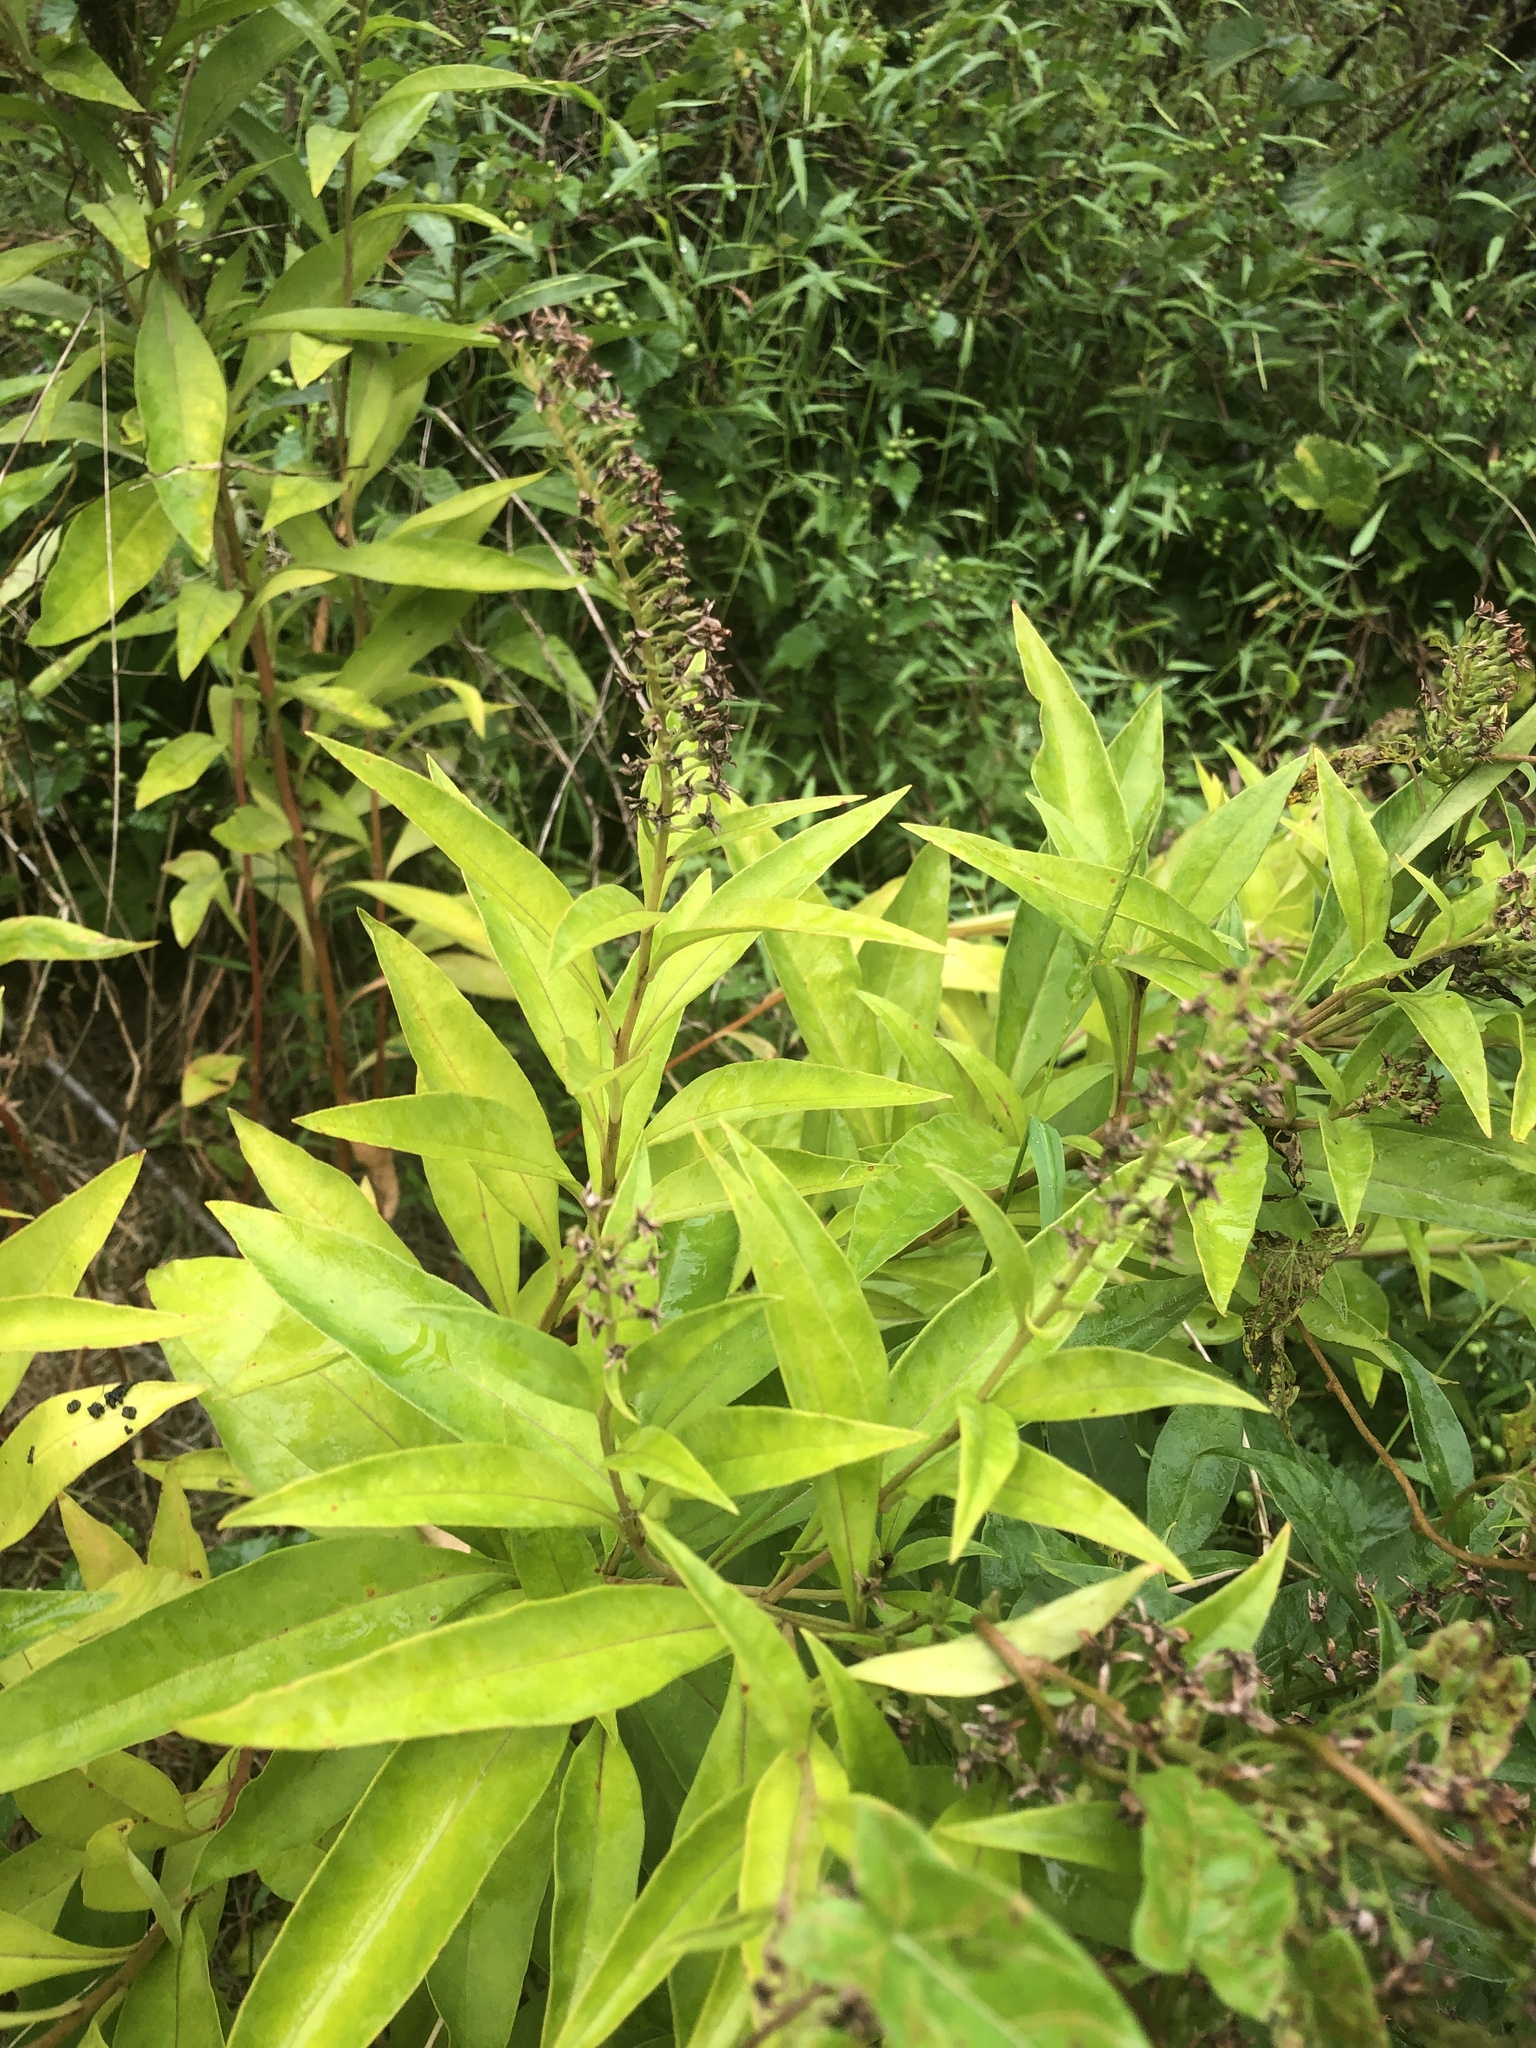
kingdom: Plantae
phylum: Tracheophyta
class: Magnoliopsida
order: Ericales
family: Primulaceae
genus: Lysimachia
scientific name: Lysimachia clethroides
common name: Gooseneck loosestrife
